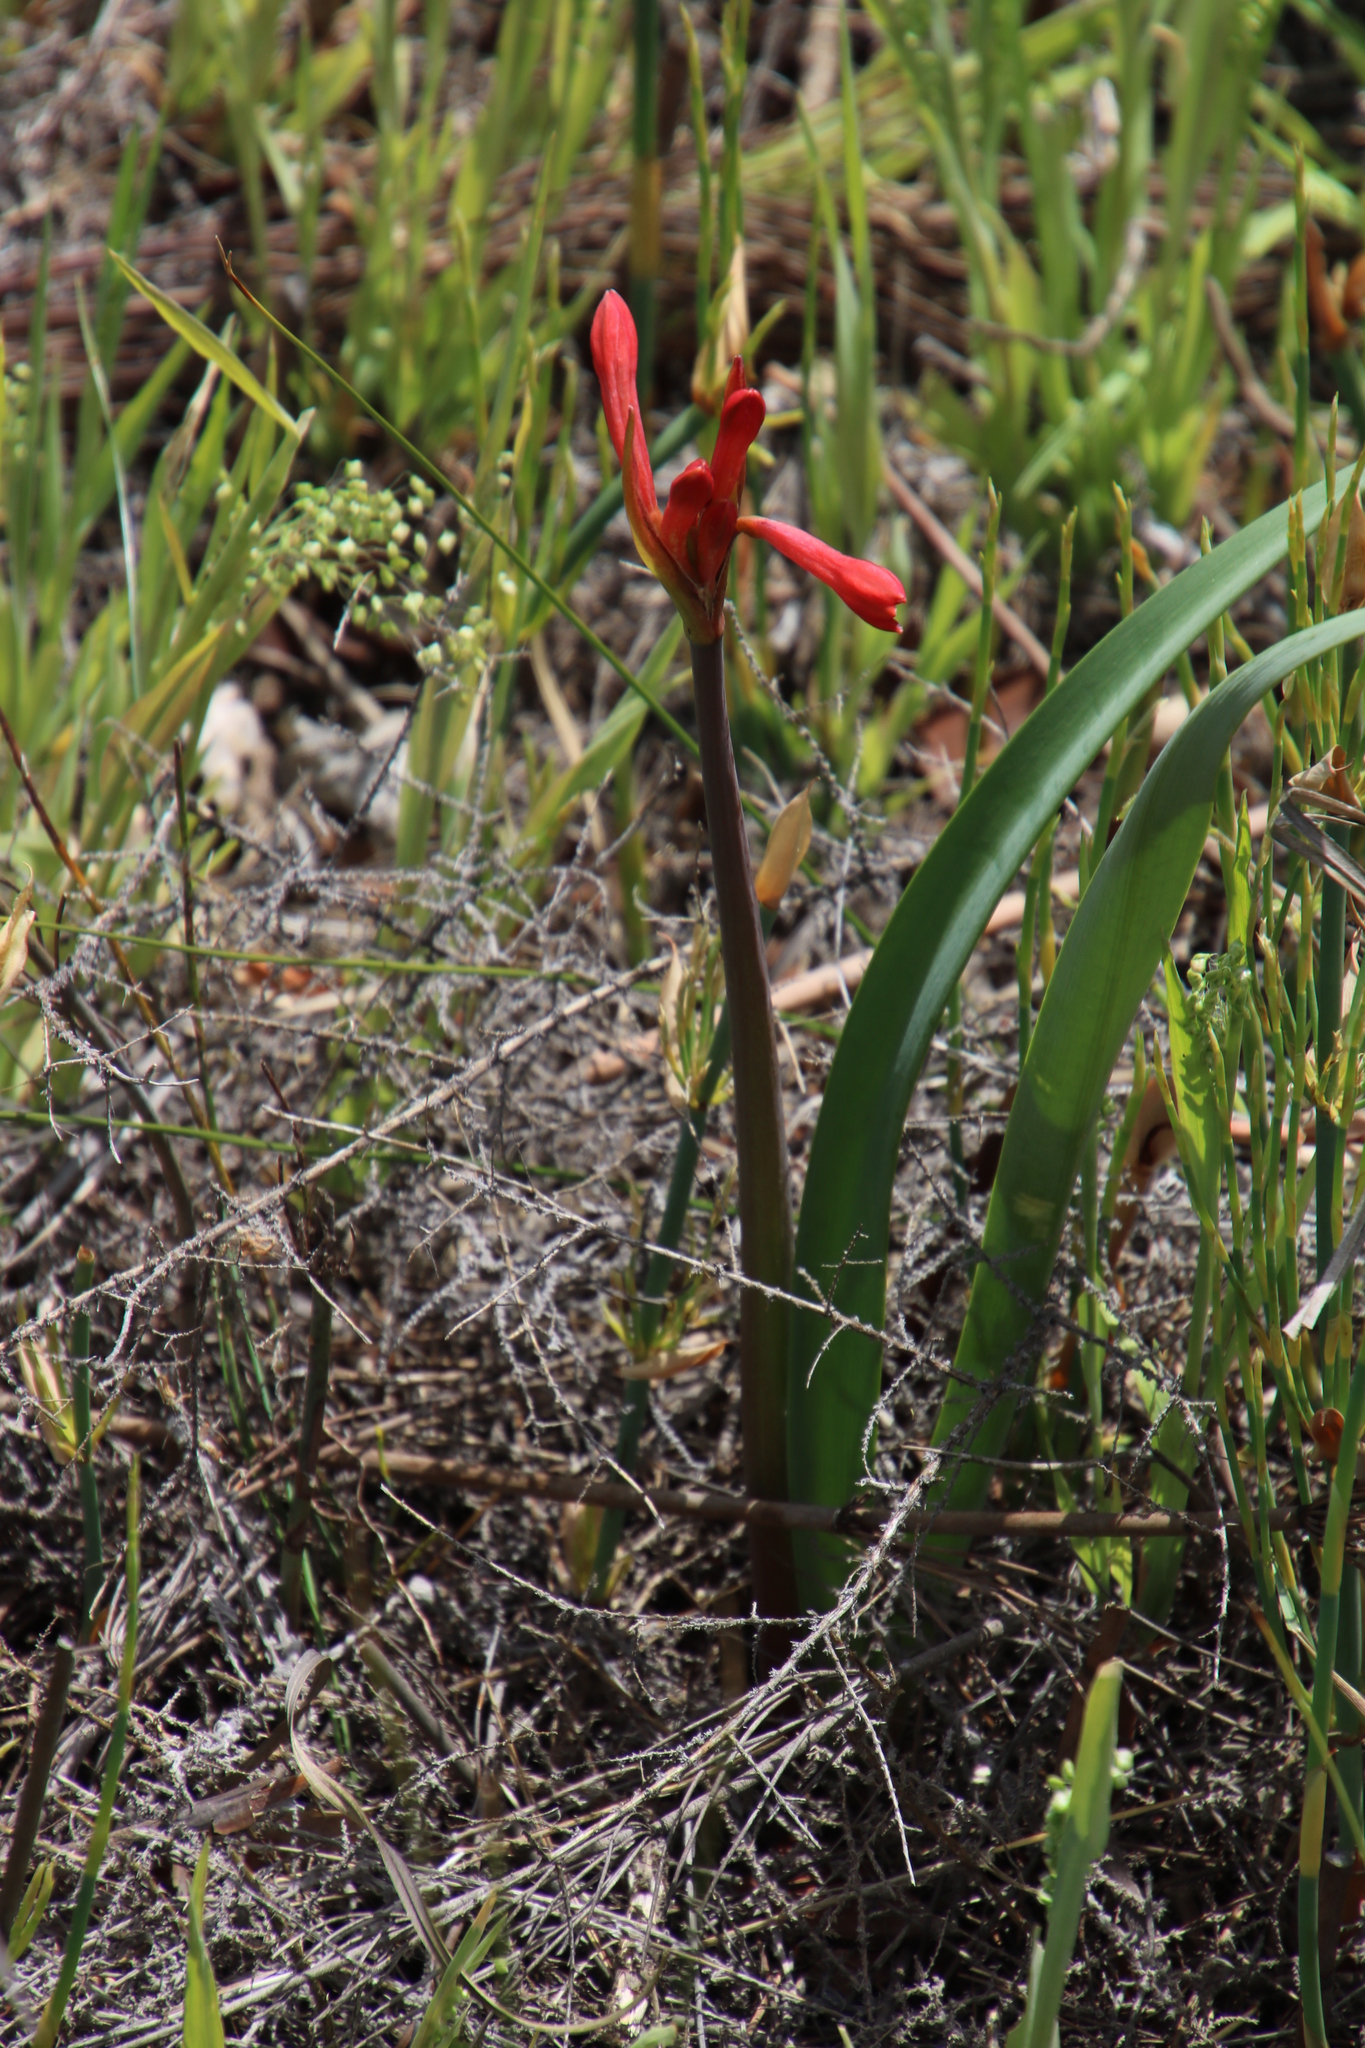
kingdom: Plantae
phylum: Tracheophyta
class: Liliopsida
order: Asparagales
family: Amaryllidaceae
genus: Cyrtanthus
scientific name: Cyrtanthus angustifolius
